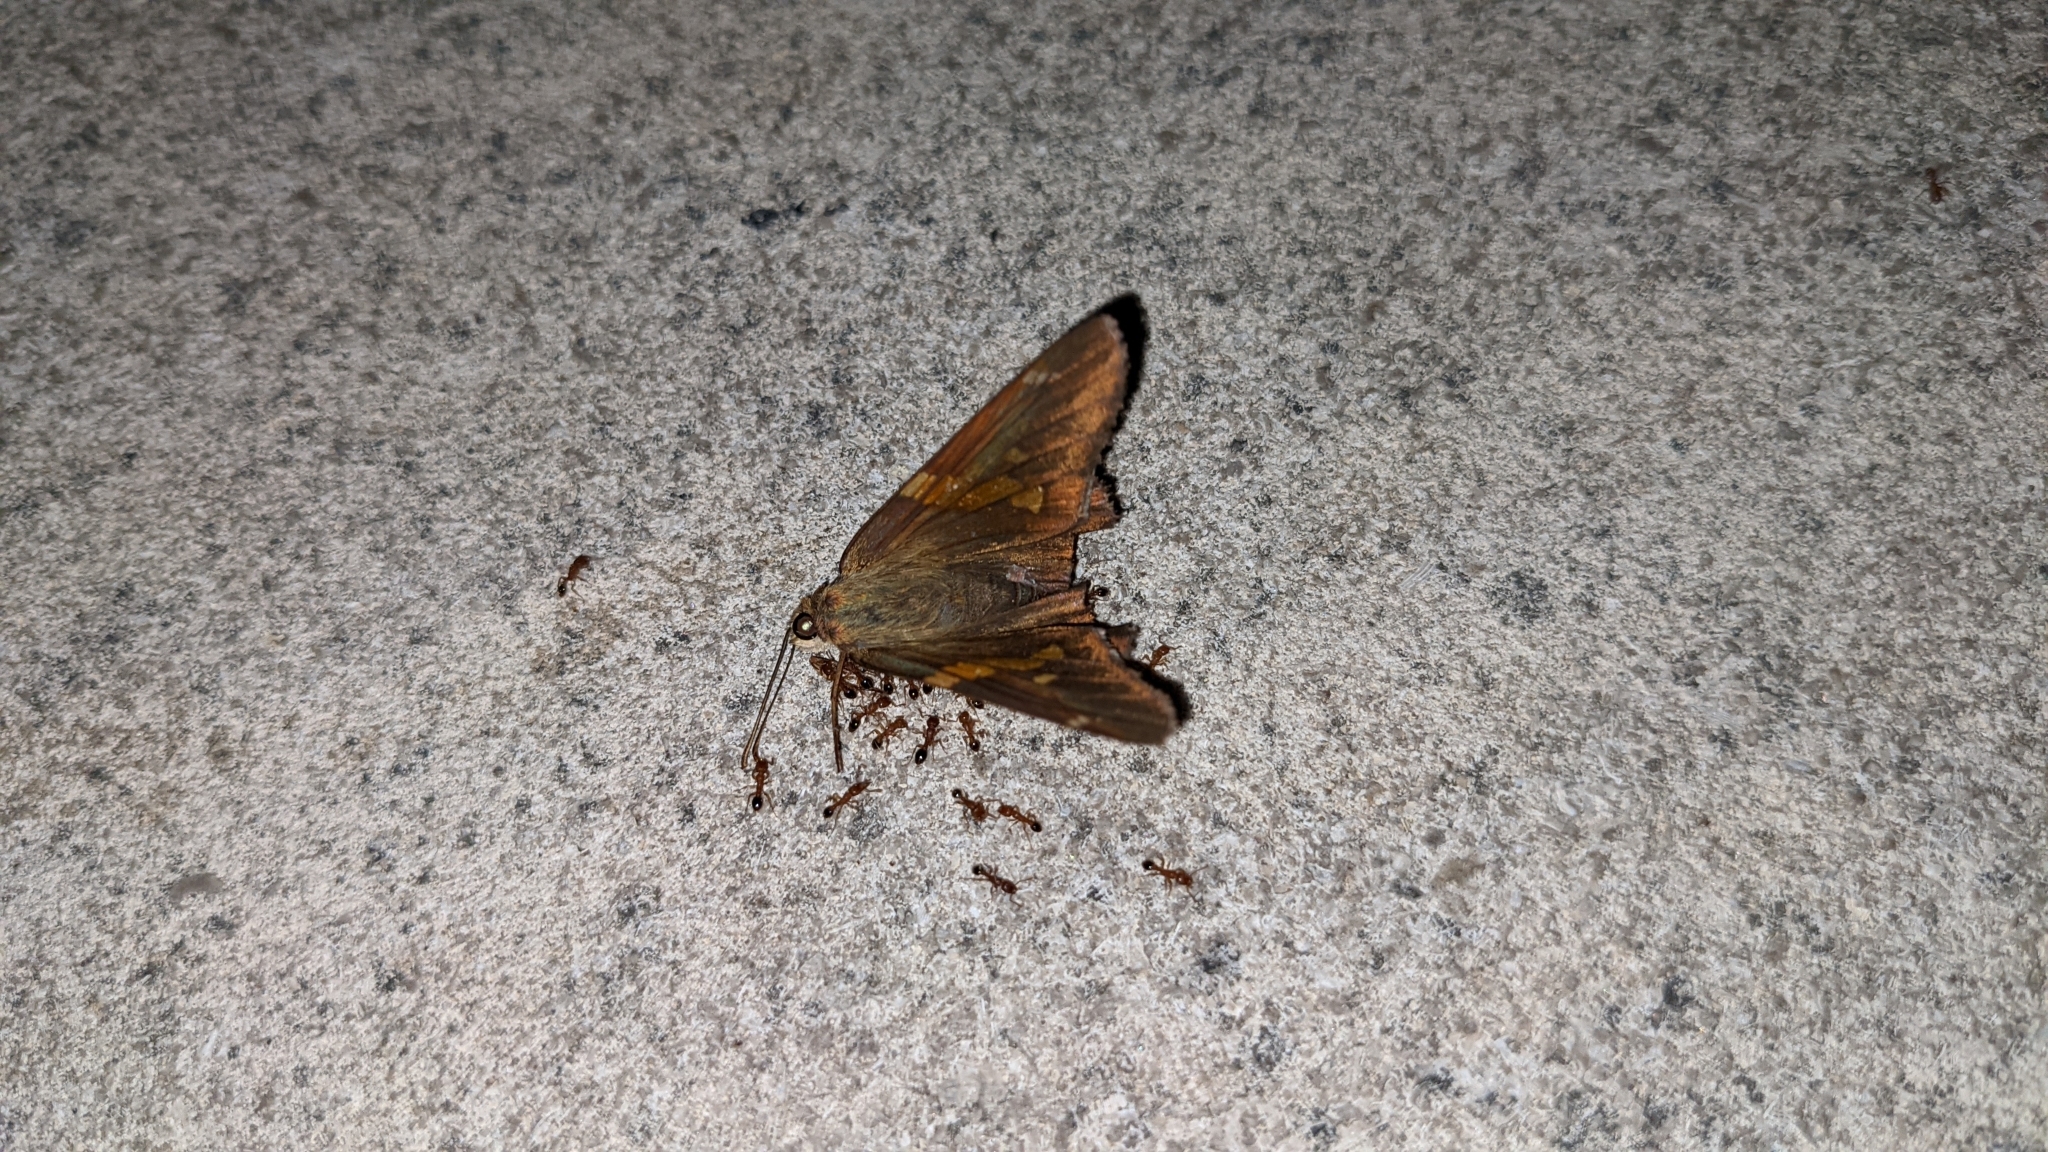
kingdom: Animalia
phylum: Arthropoda
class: Insecta
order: Lepidoptera
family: Hesperiidae
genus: Epargyreus
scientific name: Epargyreus clarus
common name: Silver-spotted skipper
